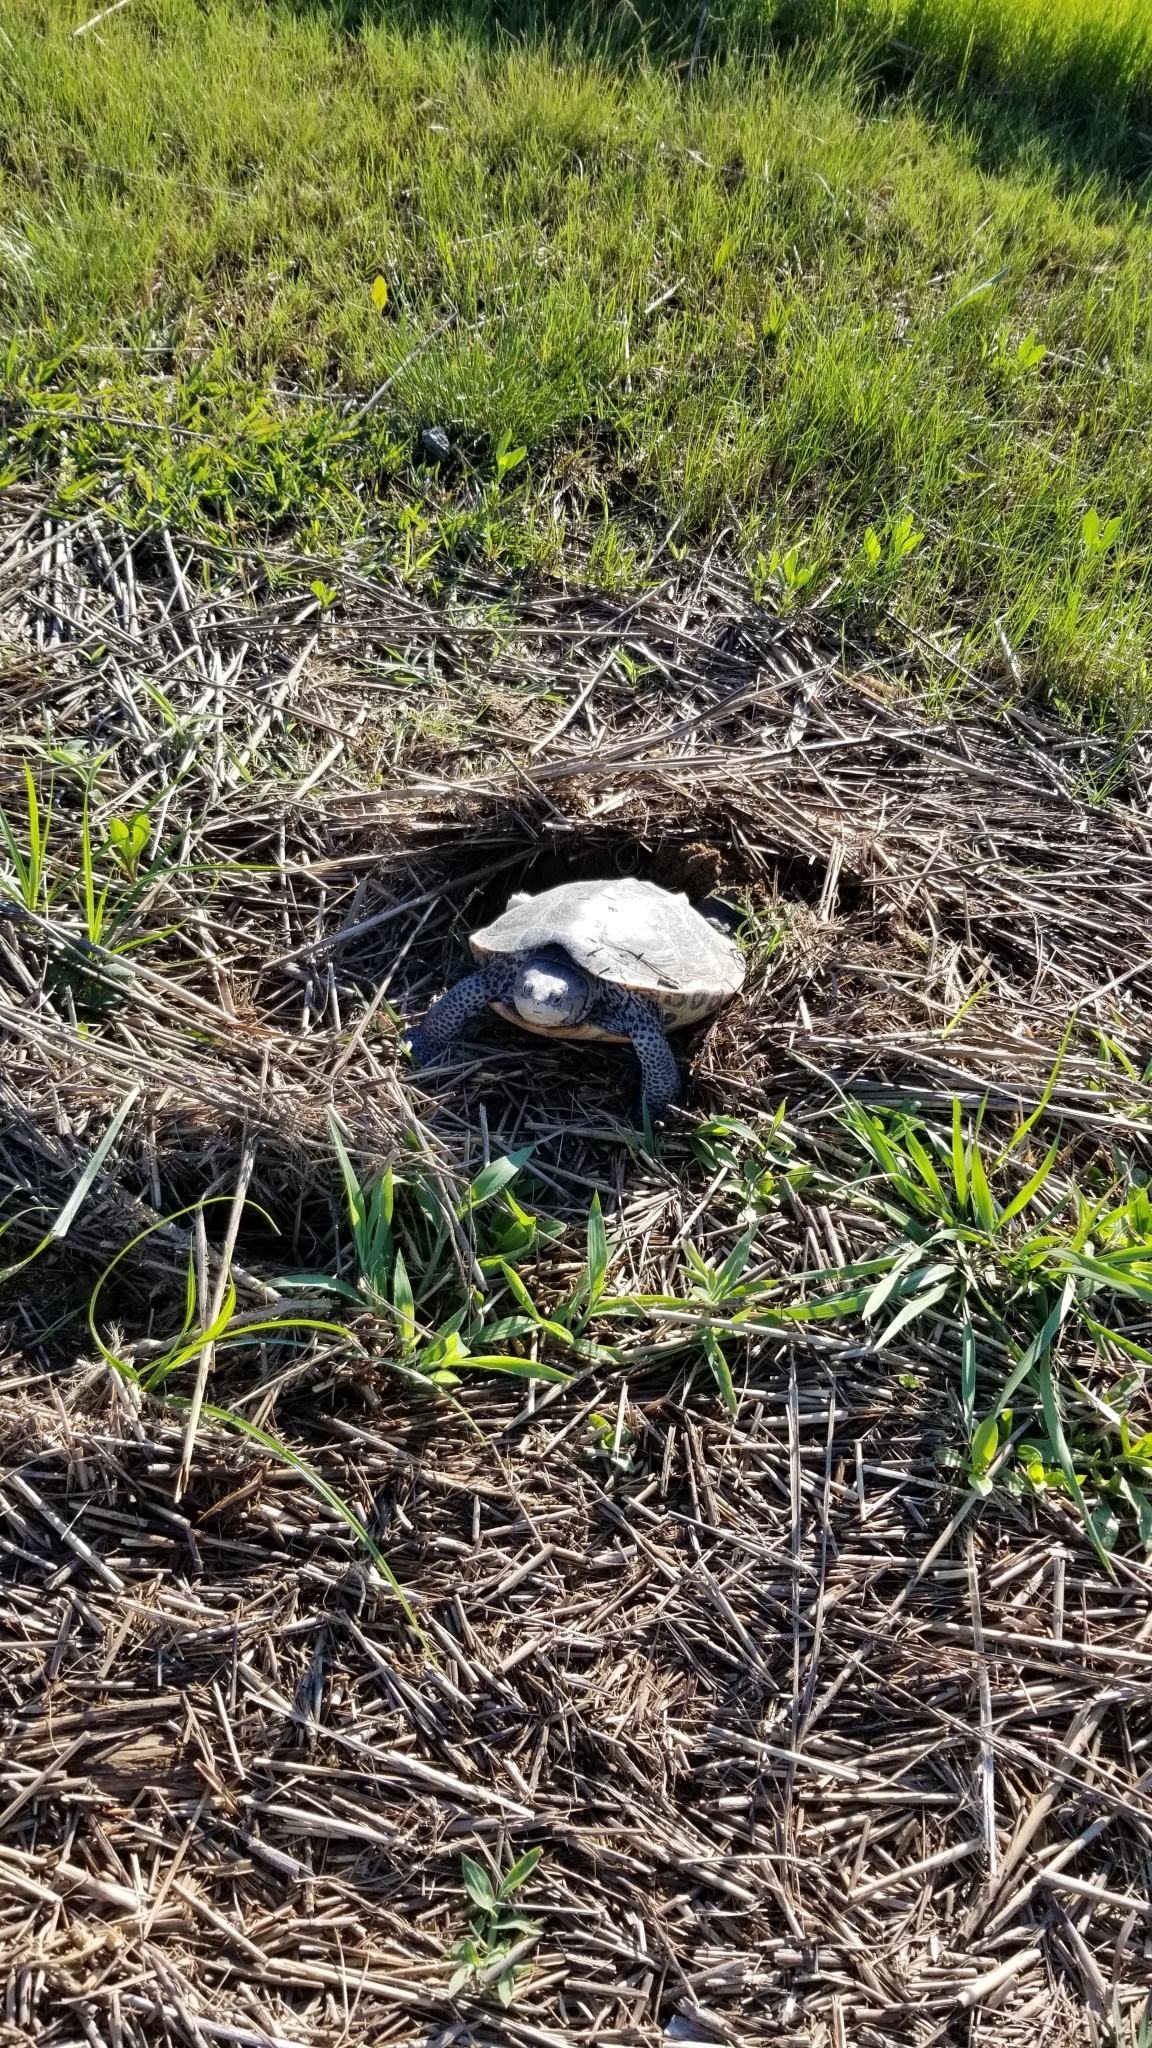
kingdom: Animalia
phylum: Chordata
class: Testudines
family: Emydidae
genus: Malaclemys
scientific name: Malaclemys terrapin
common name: Diamondback terrapin
